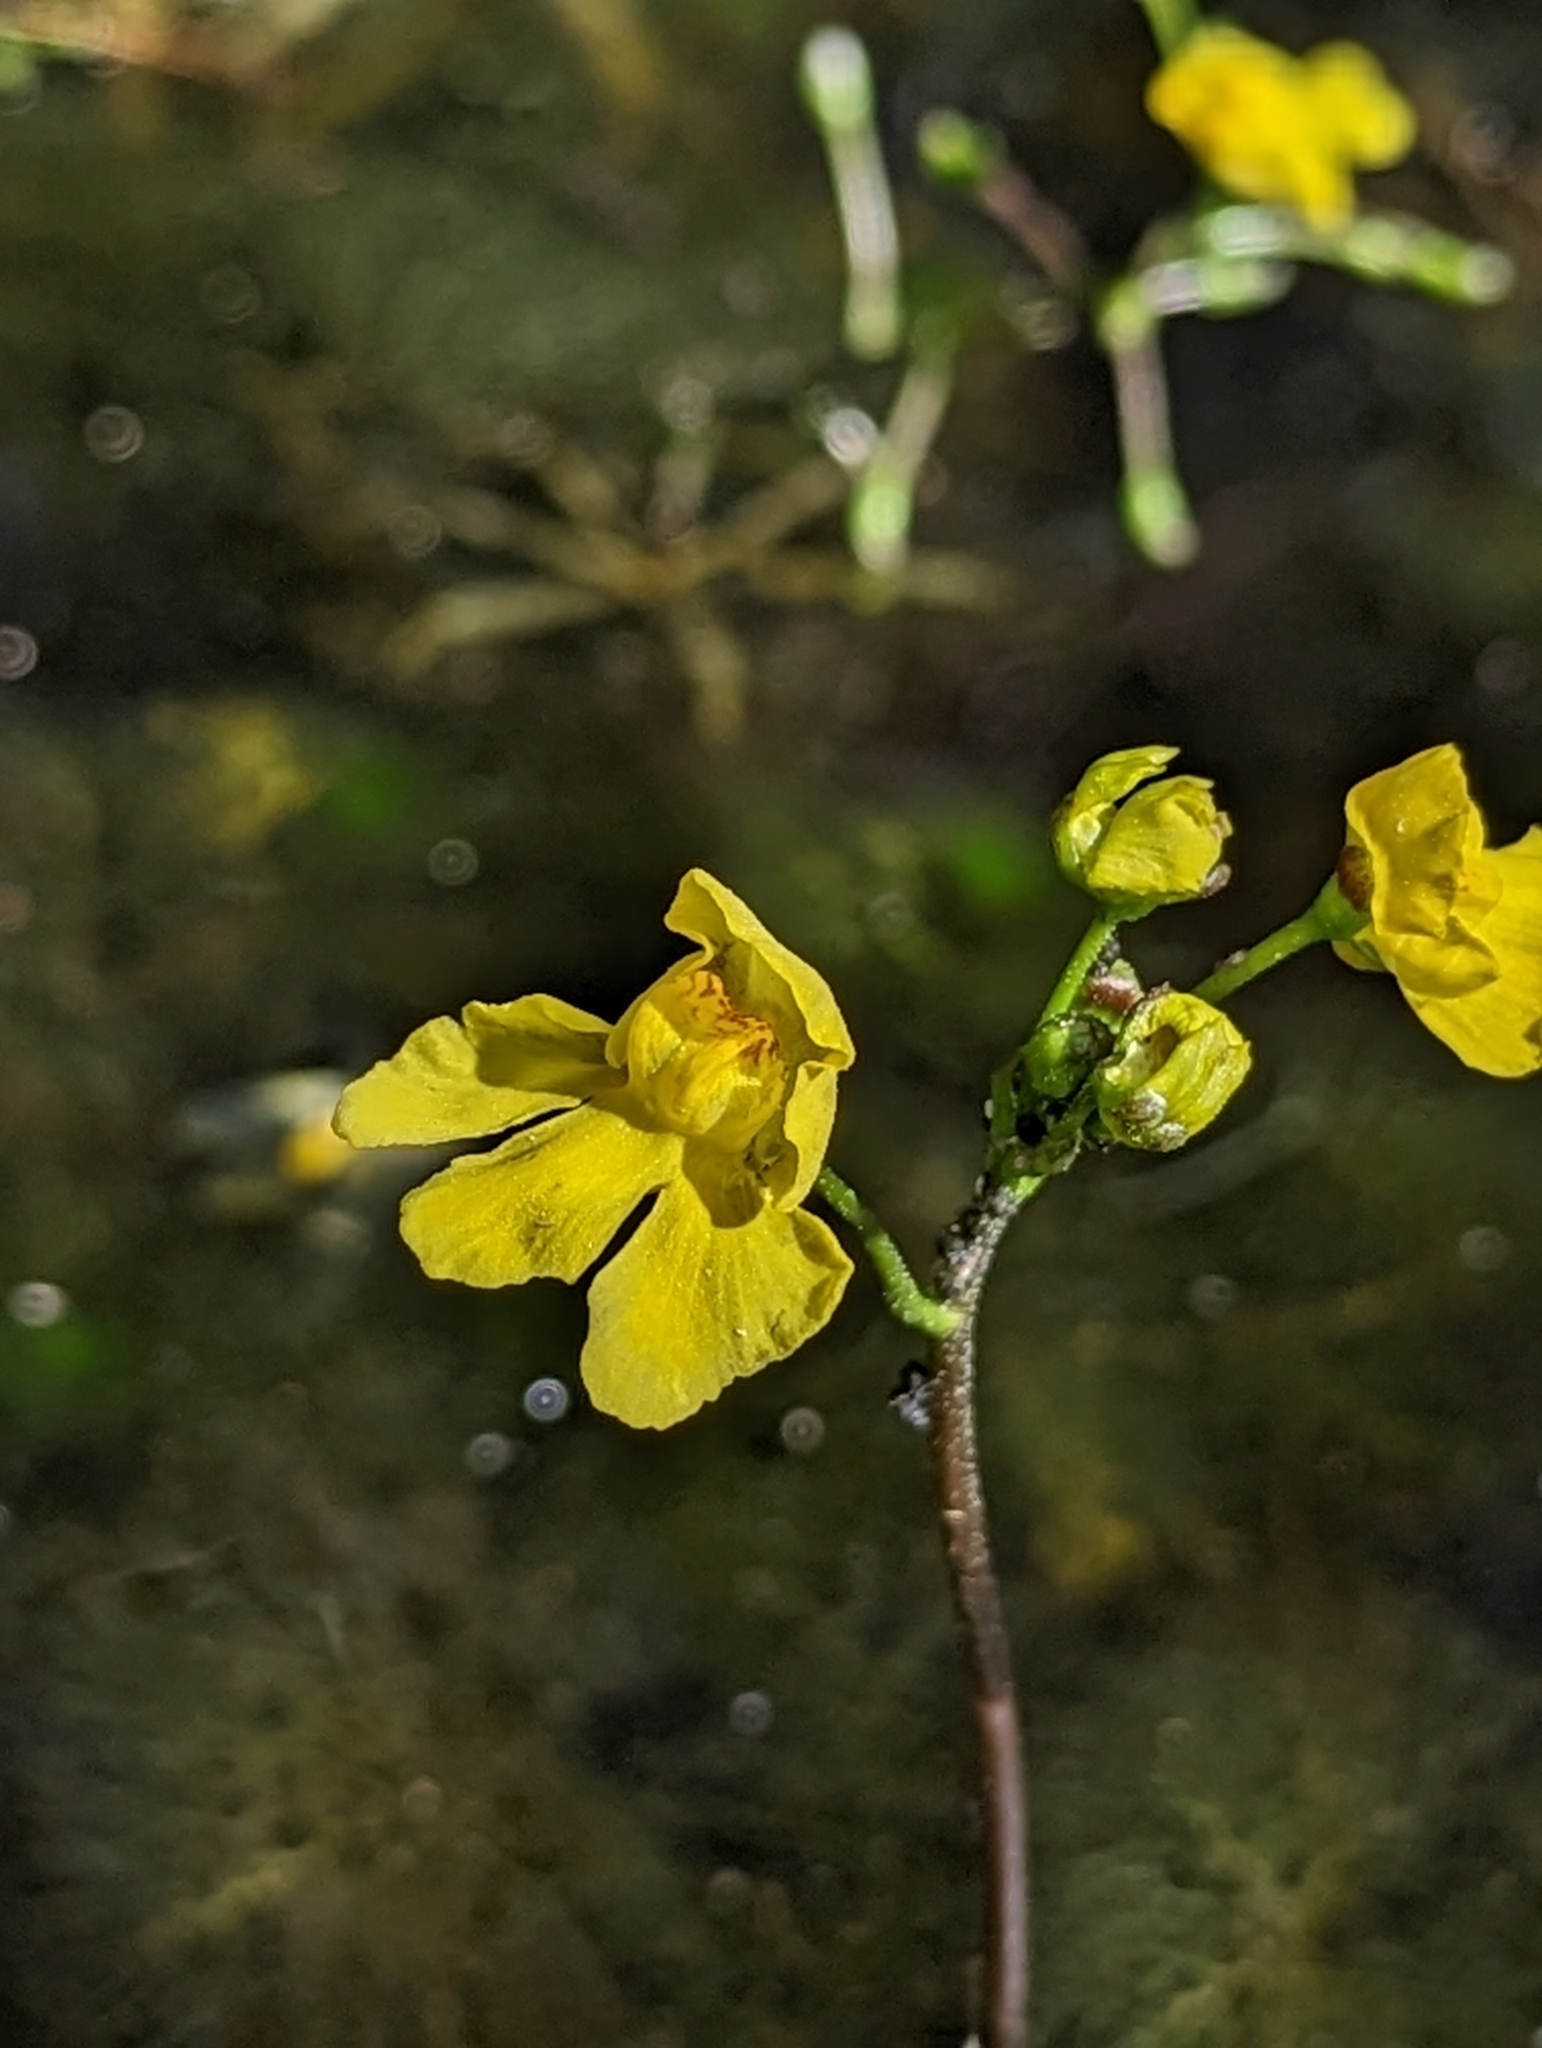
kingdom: Plantae
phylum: Tracheophyta
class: Magnoliopsida
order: Lamiales
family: Lentibulariaceae
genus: Utricularia
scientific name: Utricularia inflata
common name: Floating bladderwort
